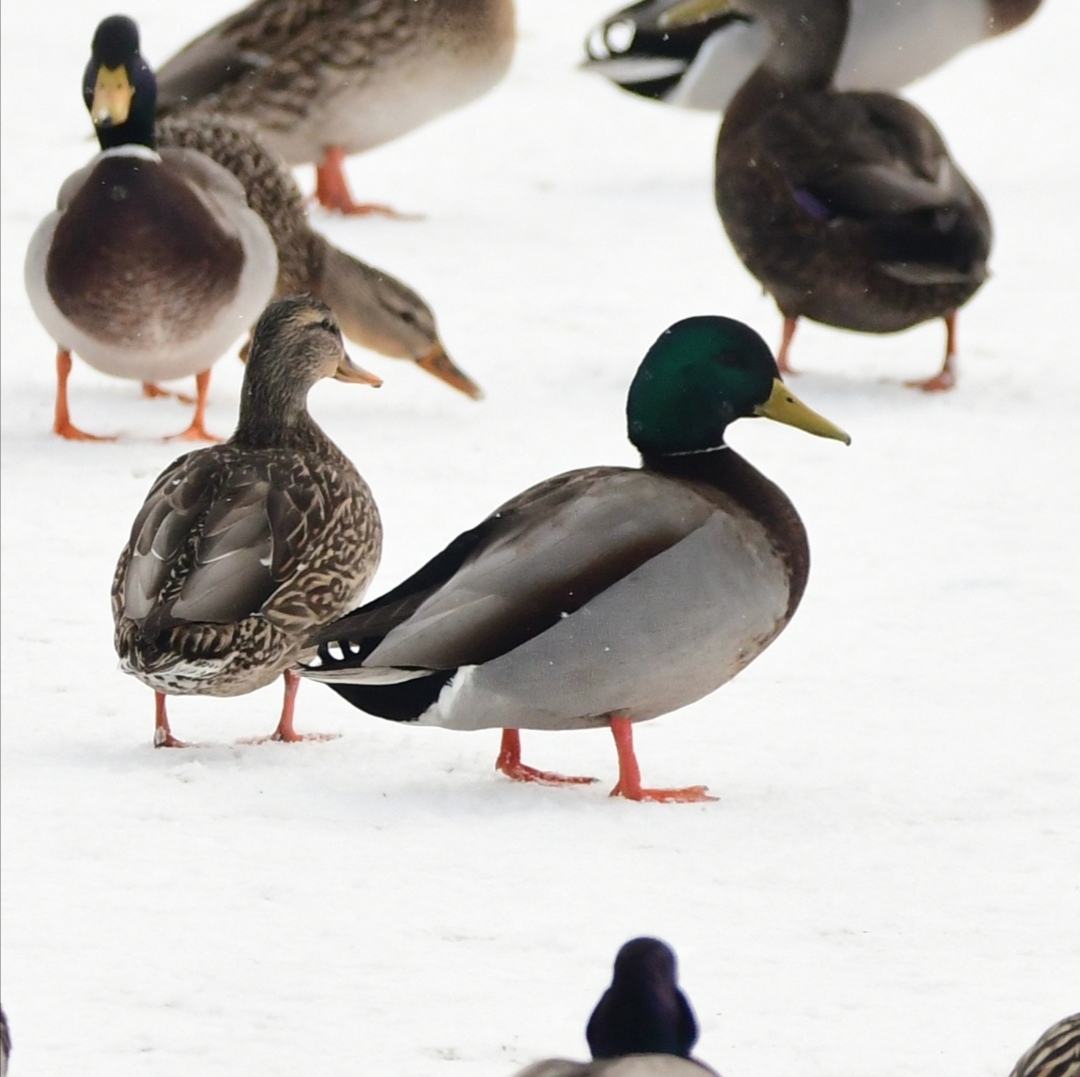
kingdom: Animalia
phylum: Chordata
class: Aves
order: Anseriformes
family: Anatidae
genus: Anas
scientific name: Anas platyrhynchos
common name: Mallard
